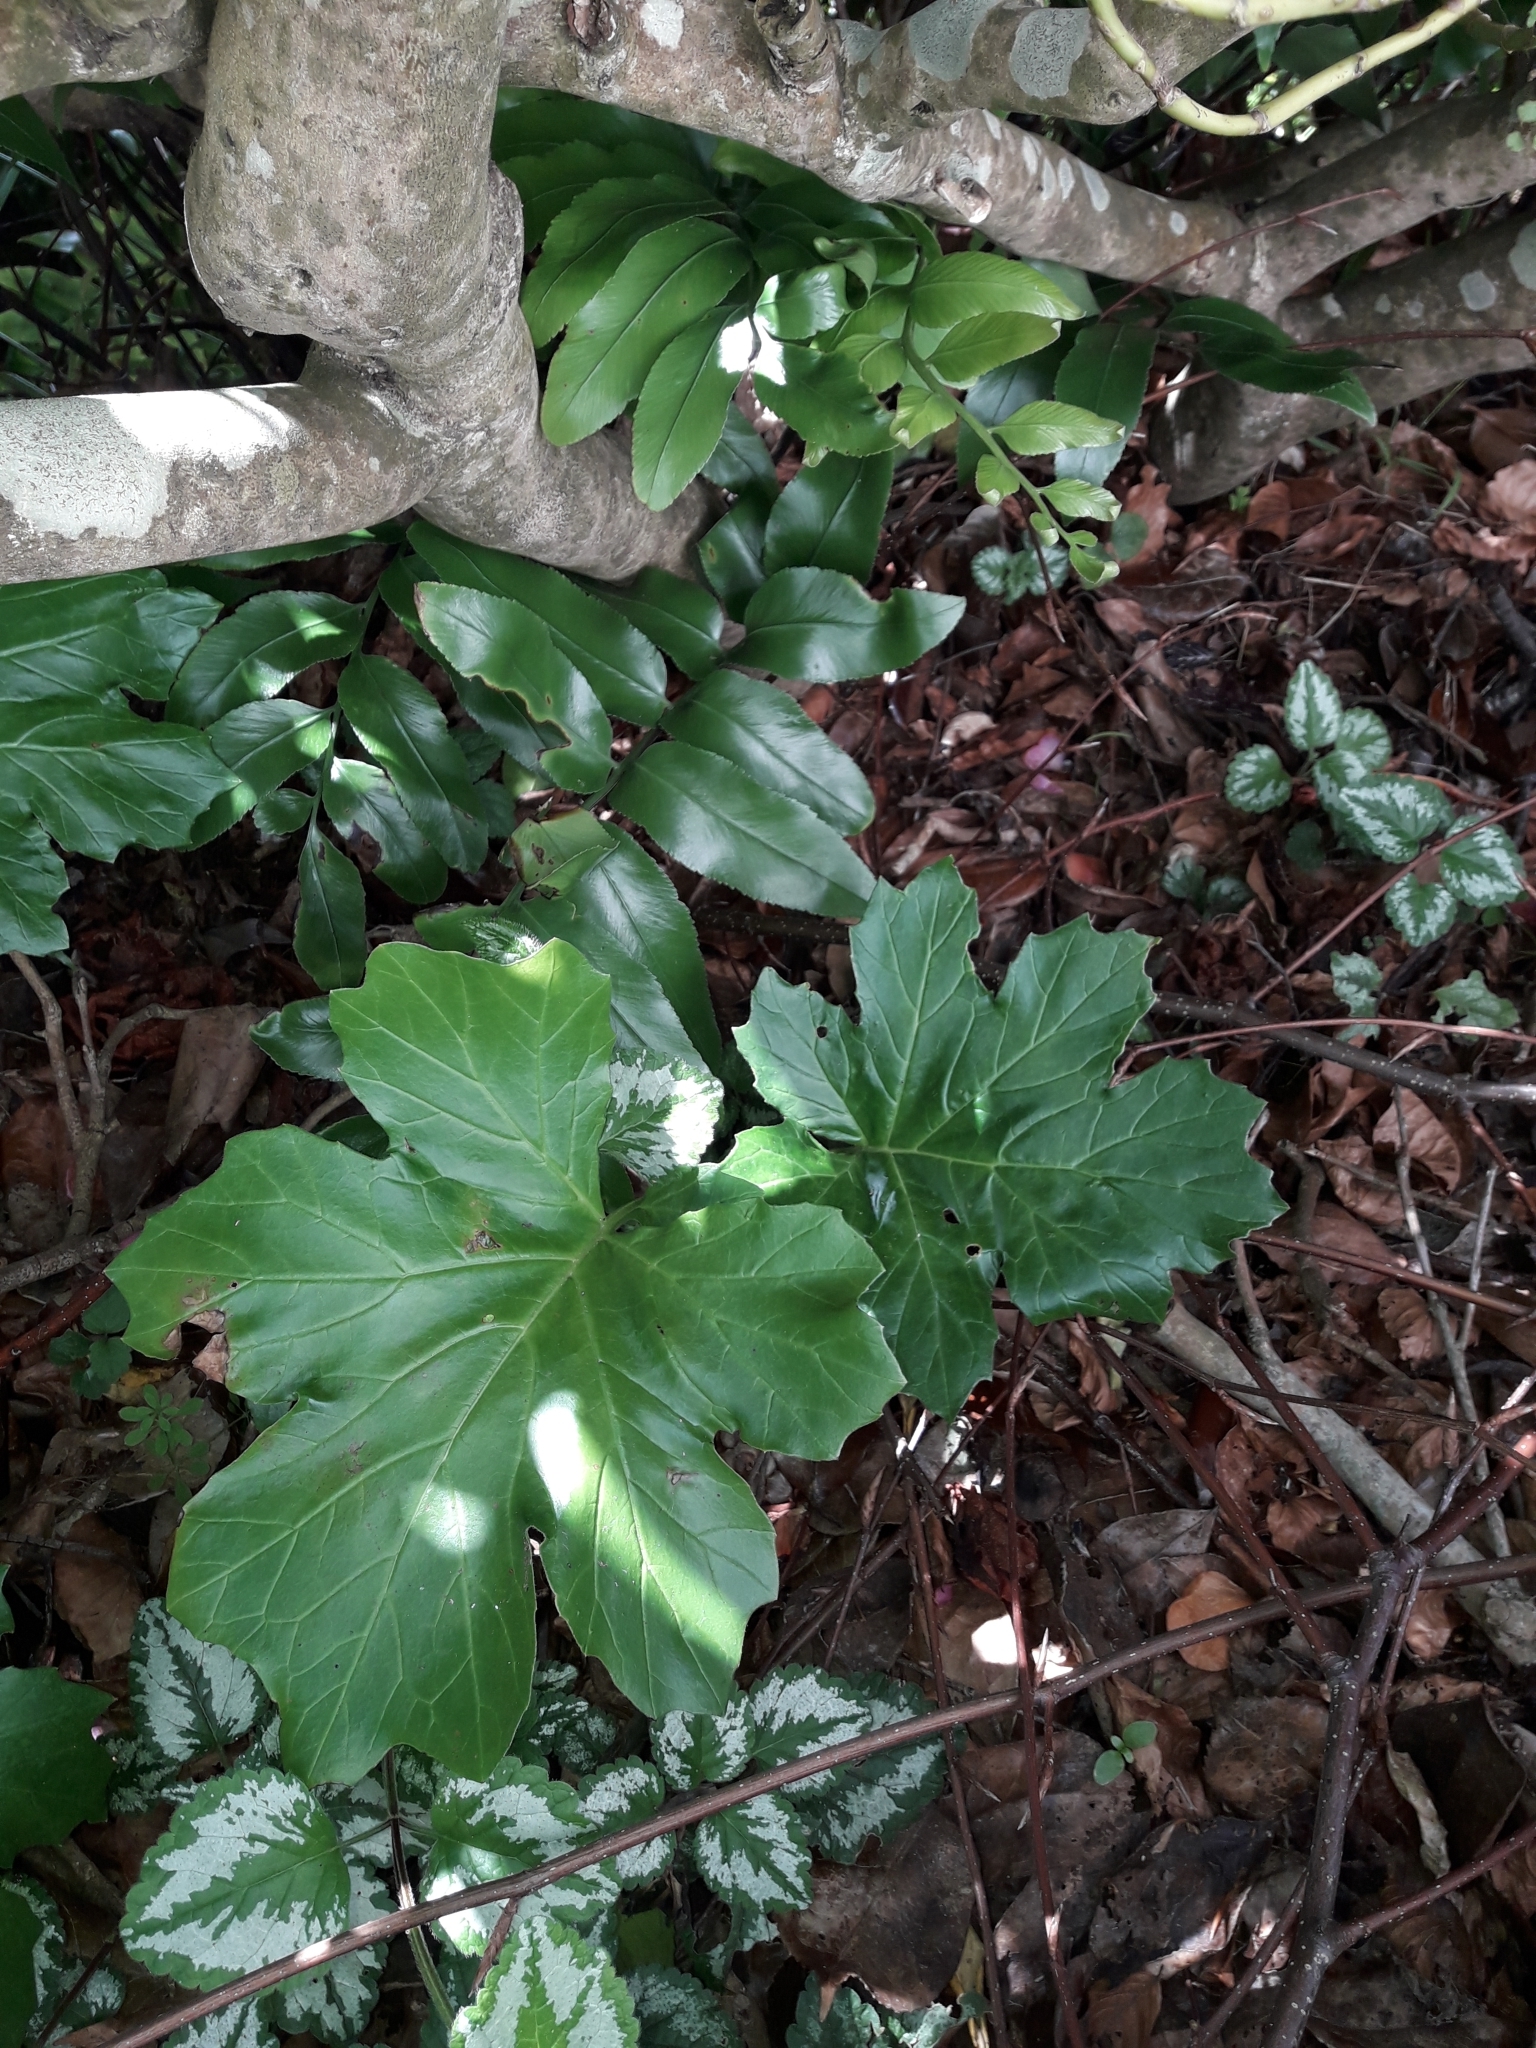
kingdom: Plantae
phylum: Tracheophyta
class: Magnoliopsida
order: Lamiales
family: Acanthaceae
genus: Acanthus
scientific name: Acanthus mollis
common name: Bear's-breech
